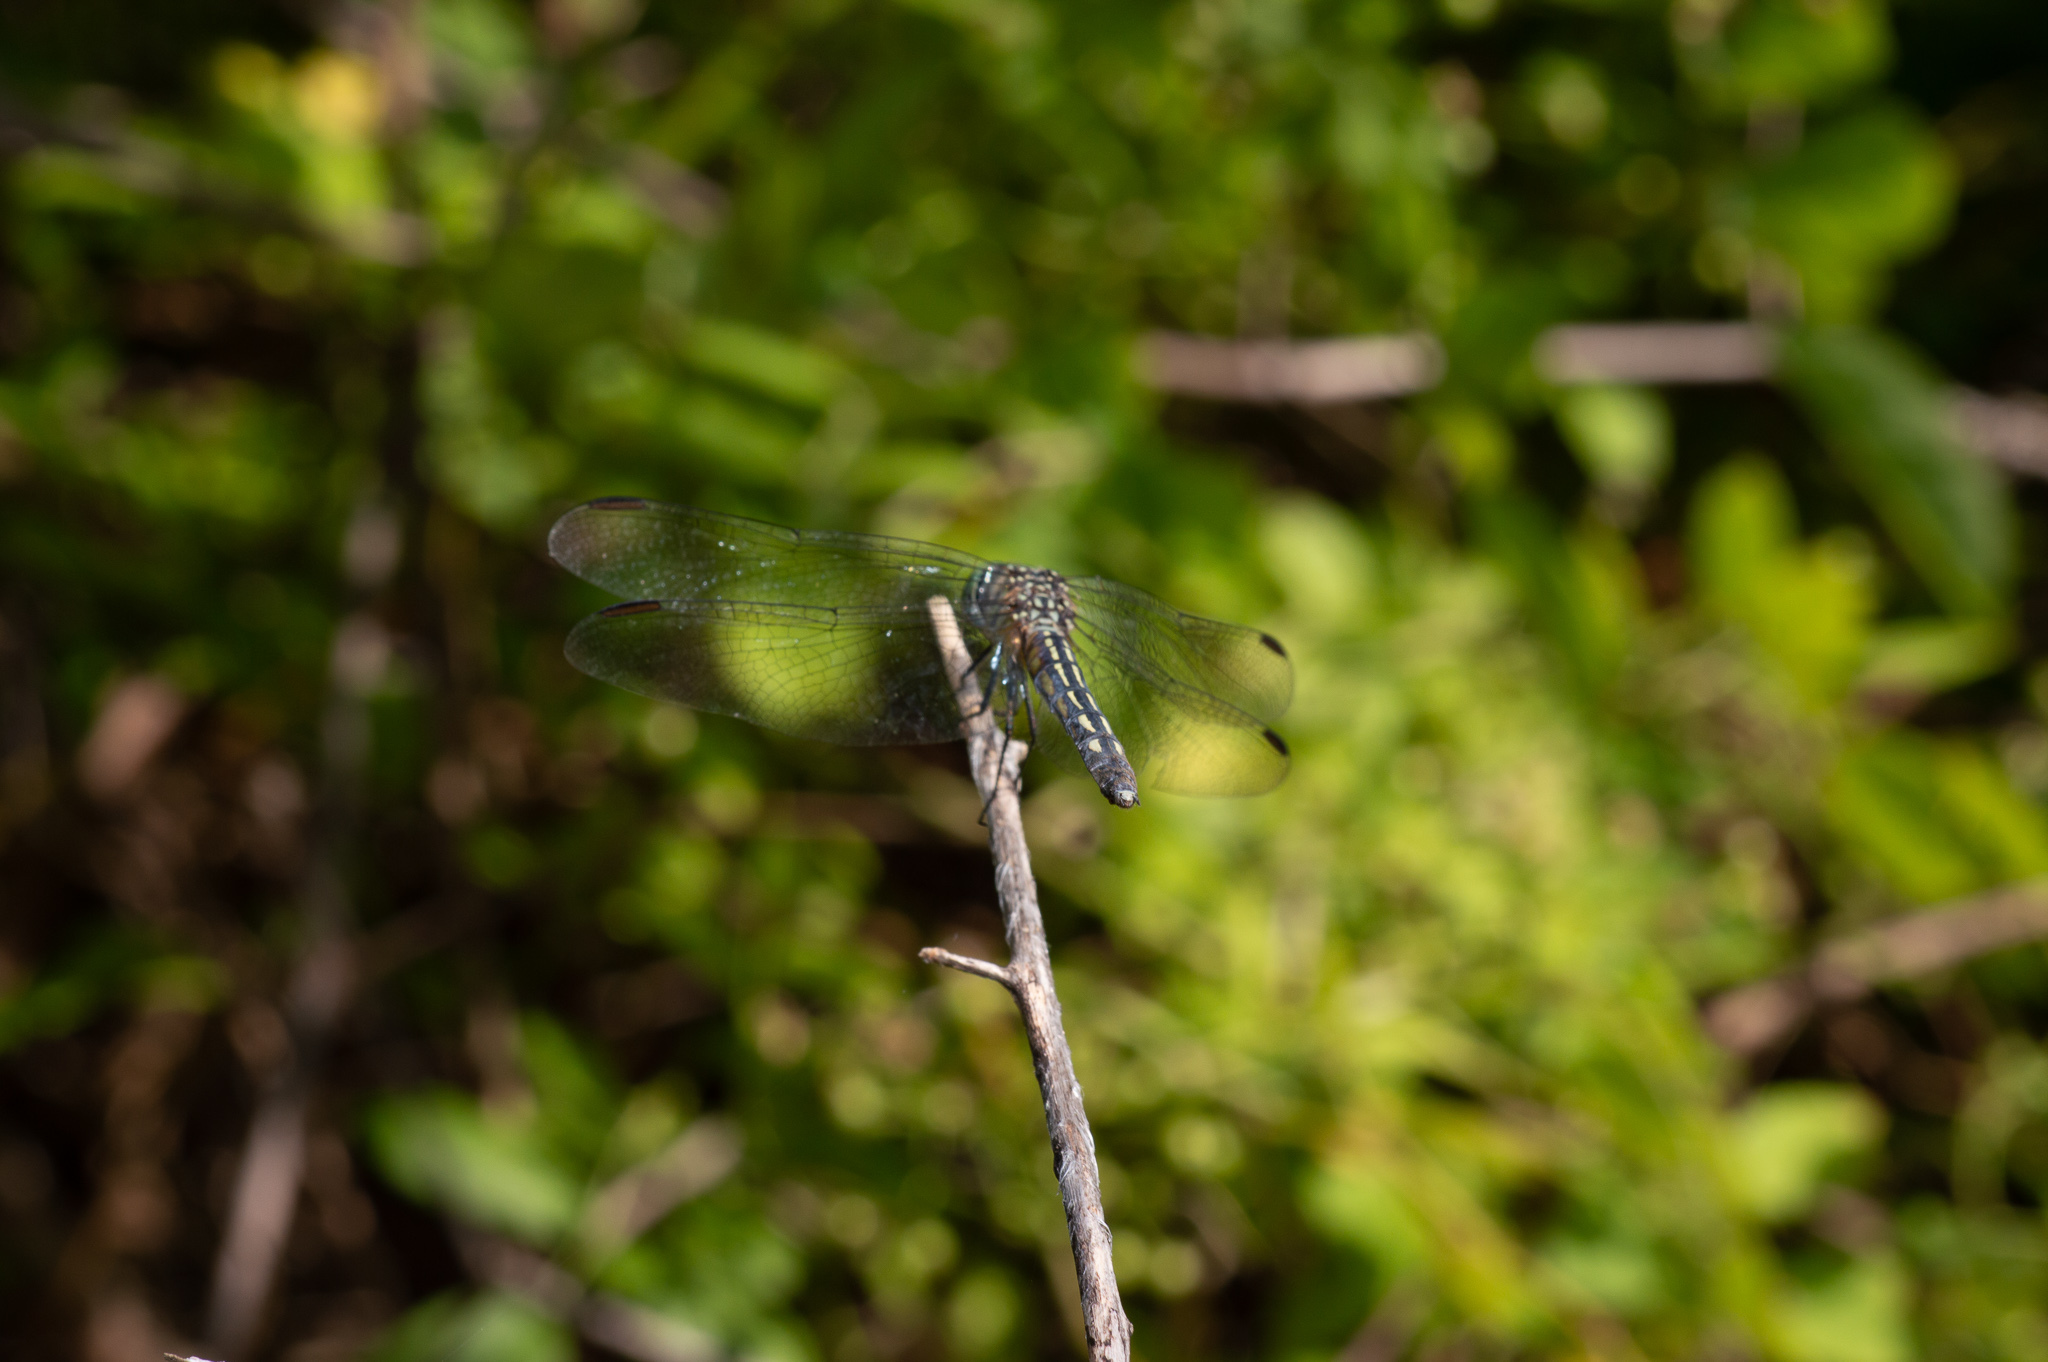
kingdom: Animalia
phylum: Arthropoda
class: Insecta
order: Odonata
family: Libellulidae
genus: Pachydiplax
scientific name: Pachydiplax longipennis
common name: Blue dasher
